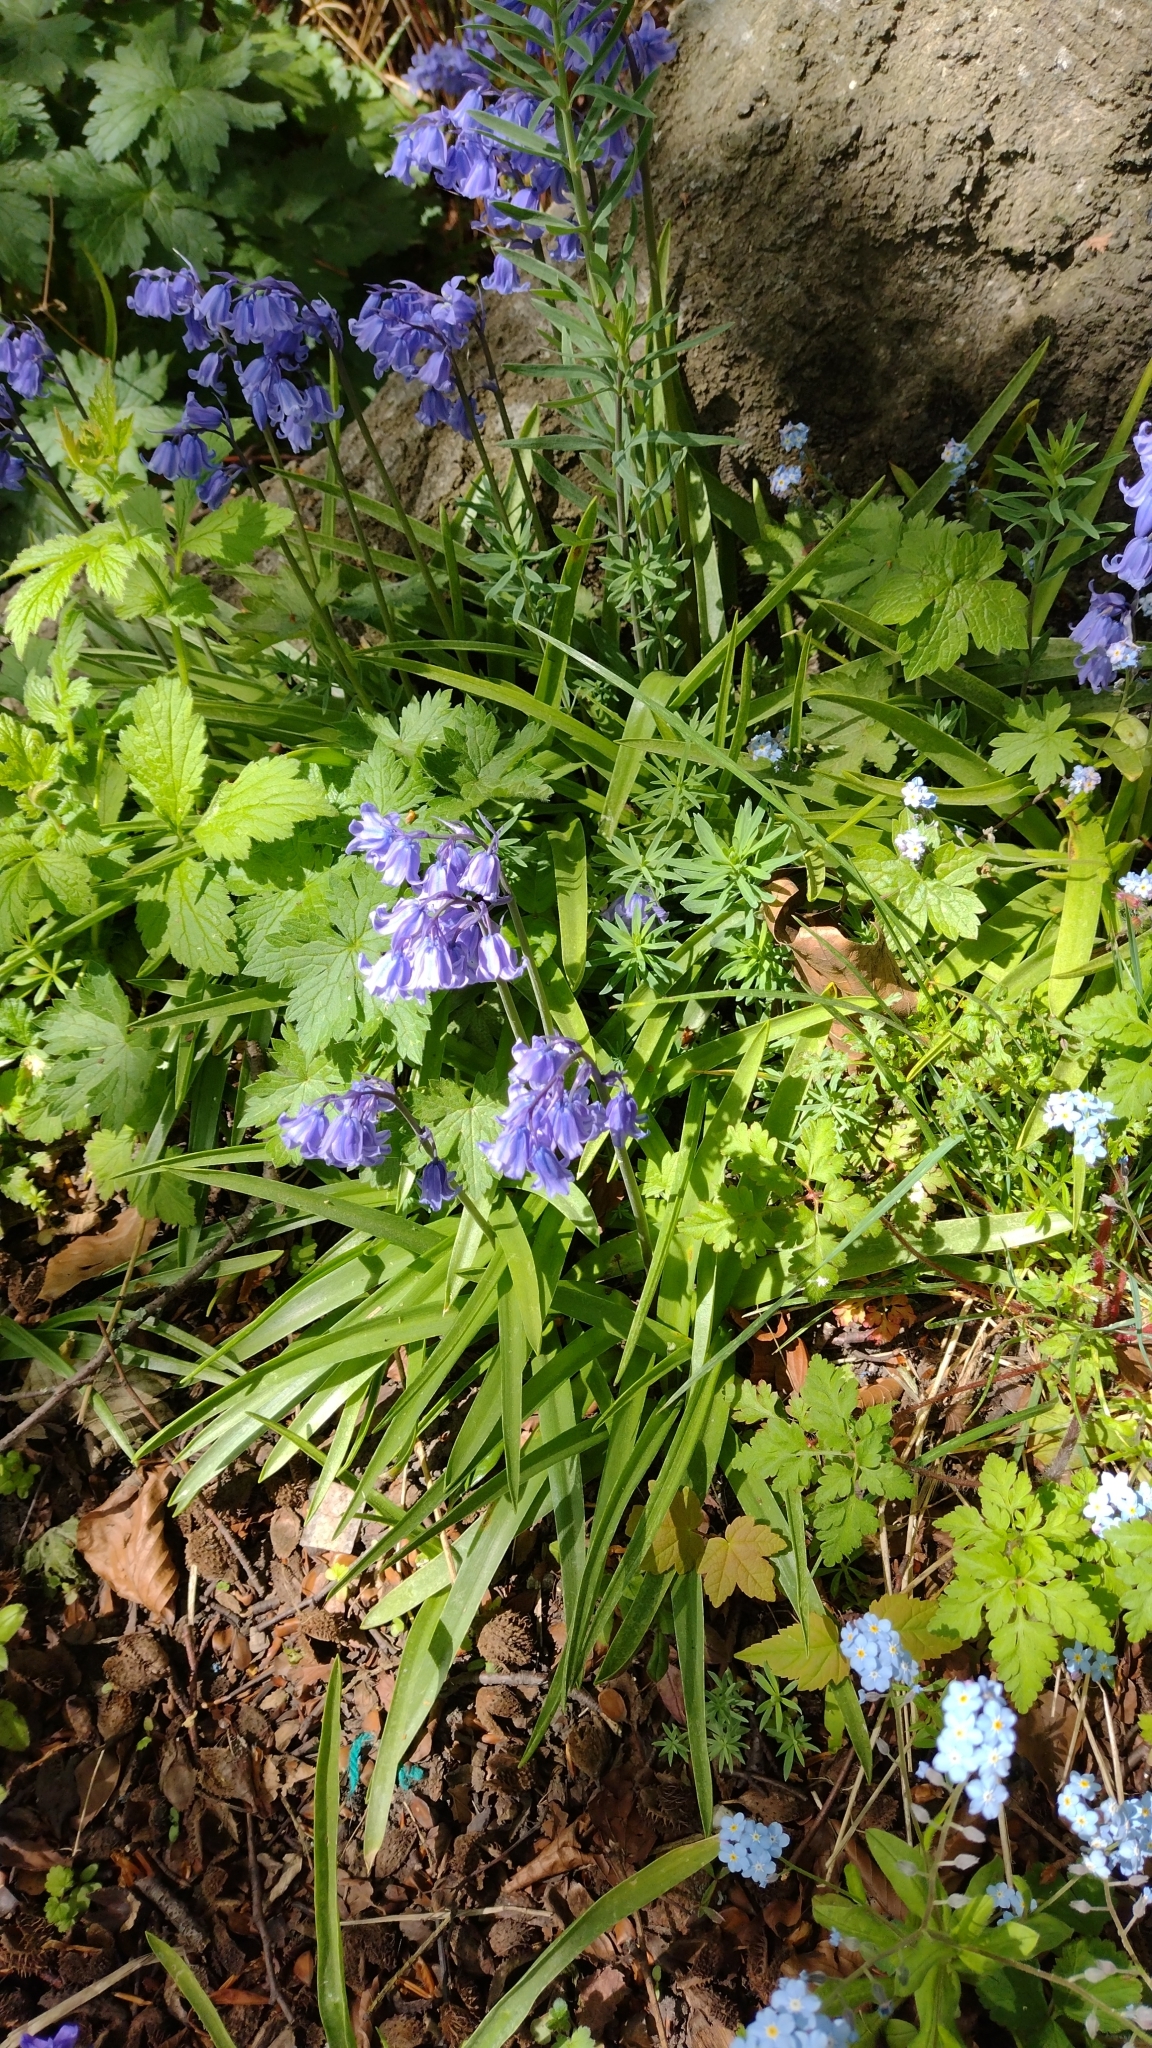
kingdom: Plantae
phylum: Tracheophyta
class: Liliopsida
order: Asparagales
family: Asparagaceae
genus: Hyacinthoides
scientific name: Hyacinthoides massartiana
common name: Hyacinthoides
